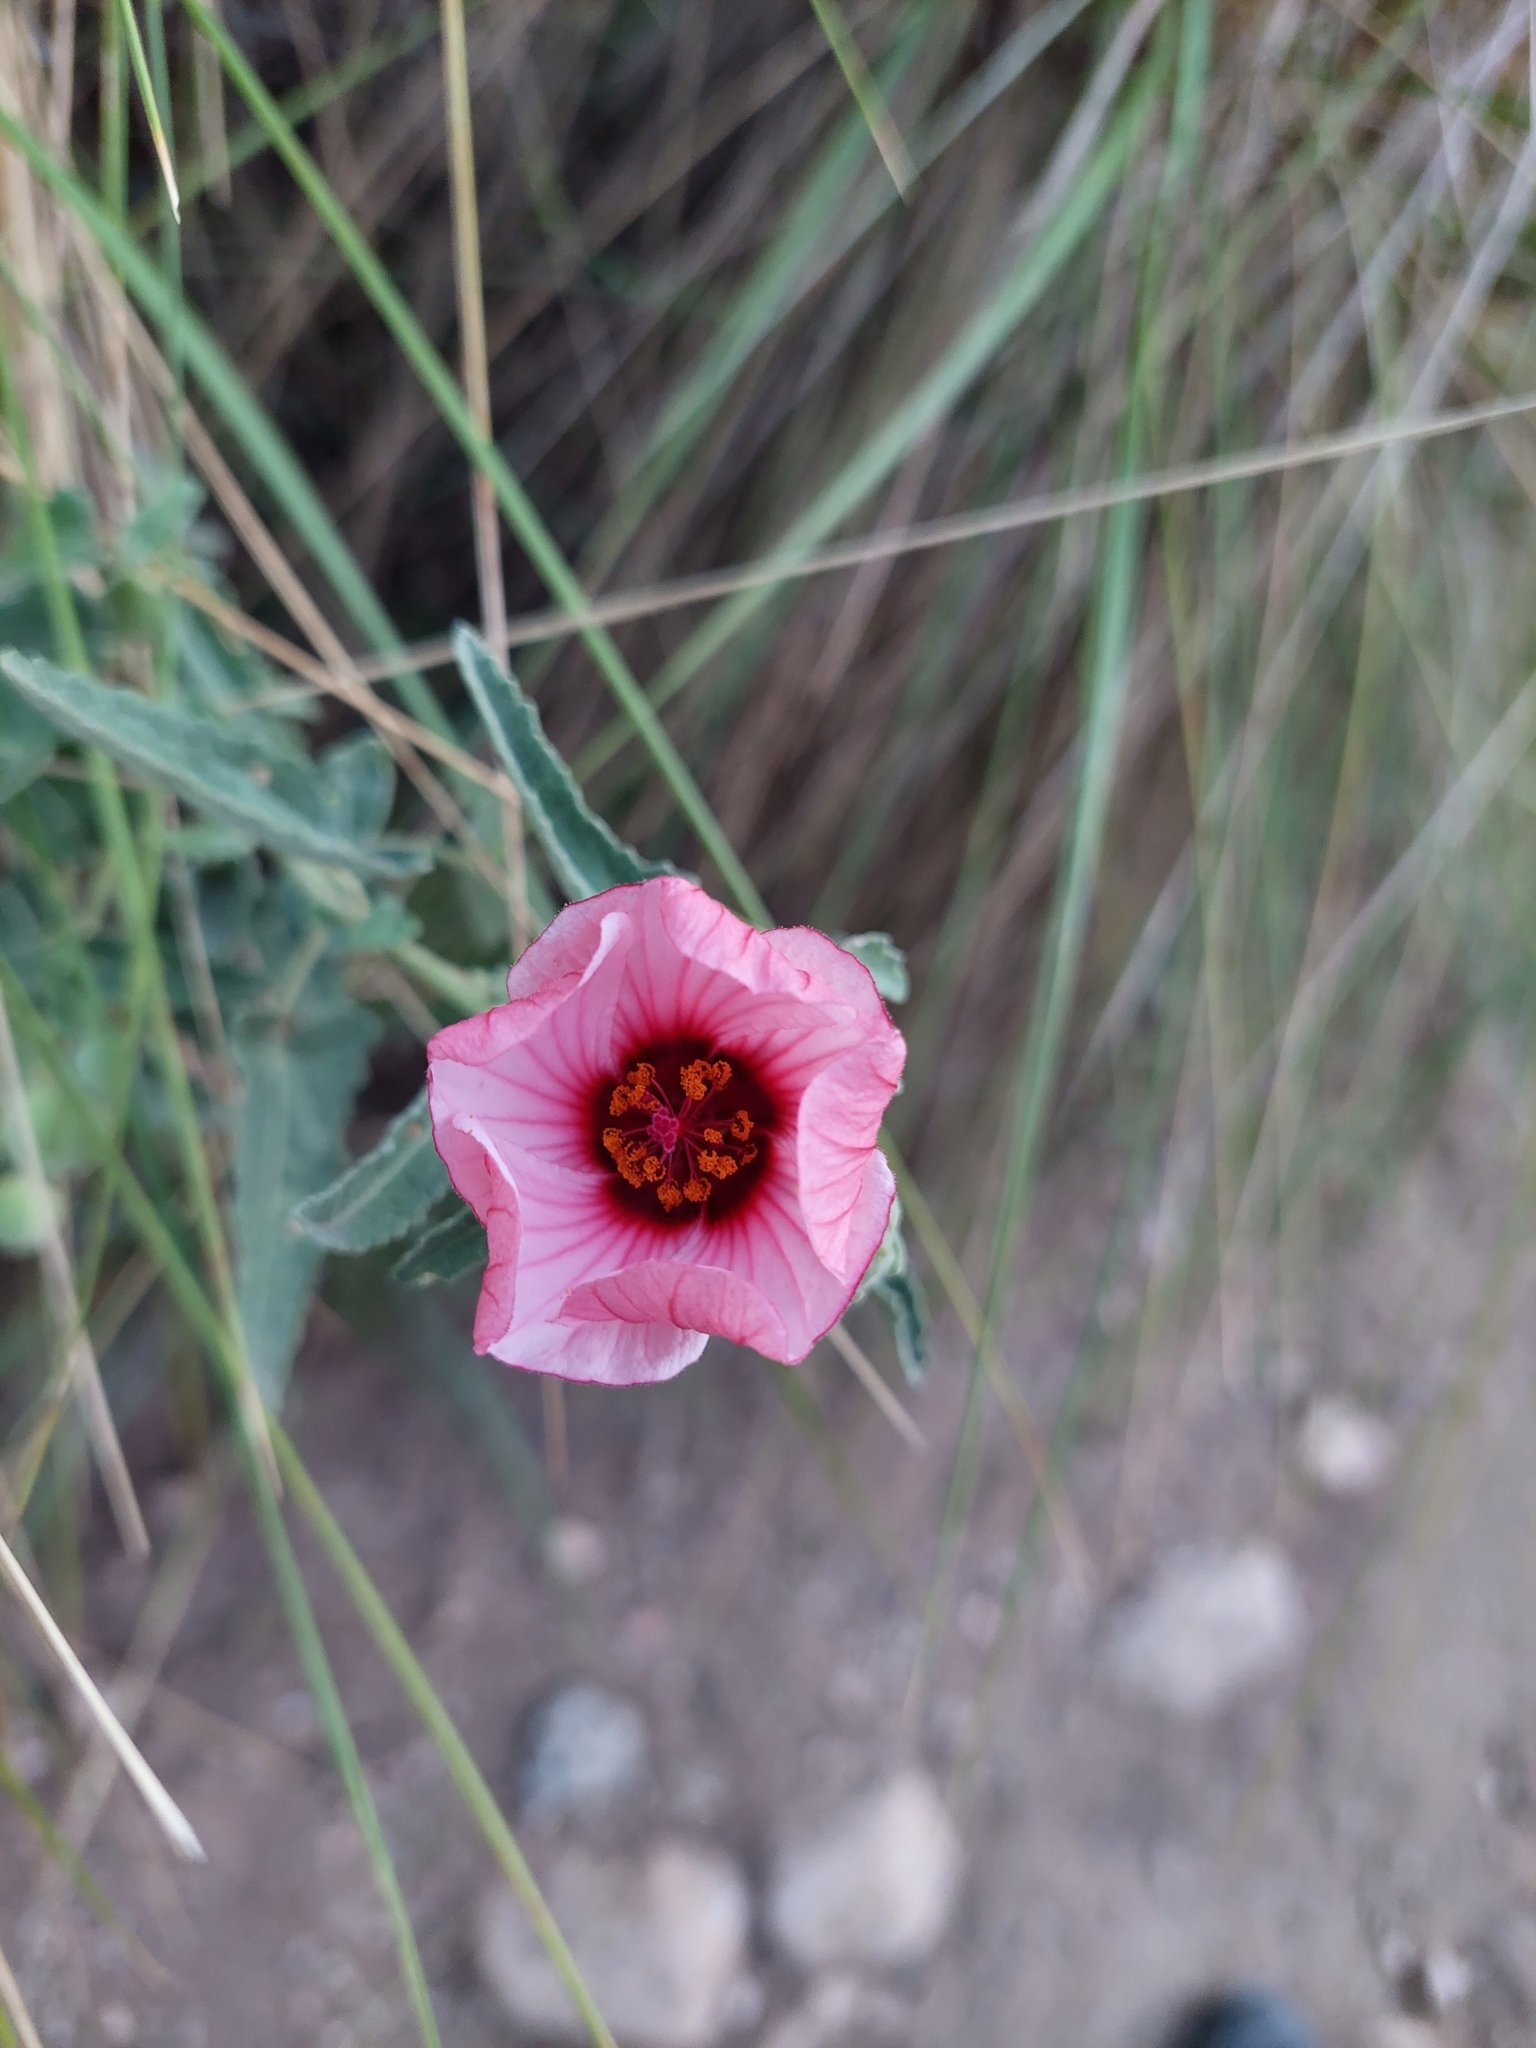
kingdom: Plantae
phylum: Tracheophyta
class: Magnoliopsida
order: Malvales
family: Malvaceae
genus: Pavonia
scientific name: Pavonia aurigloba
